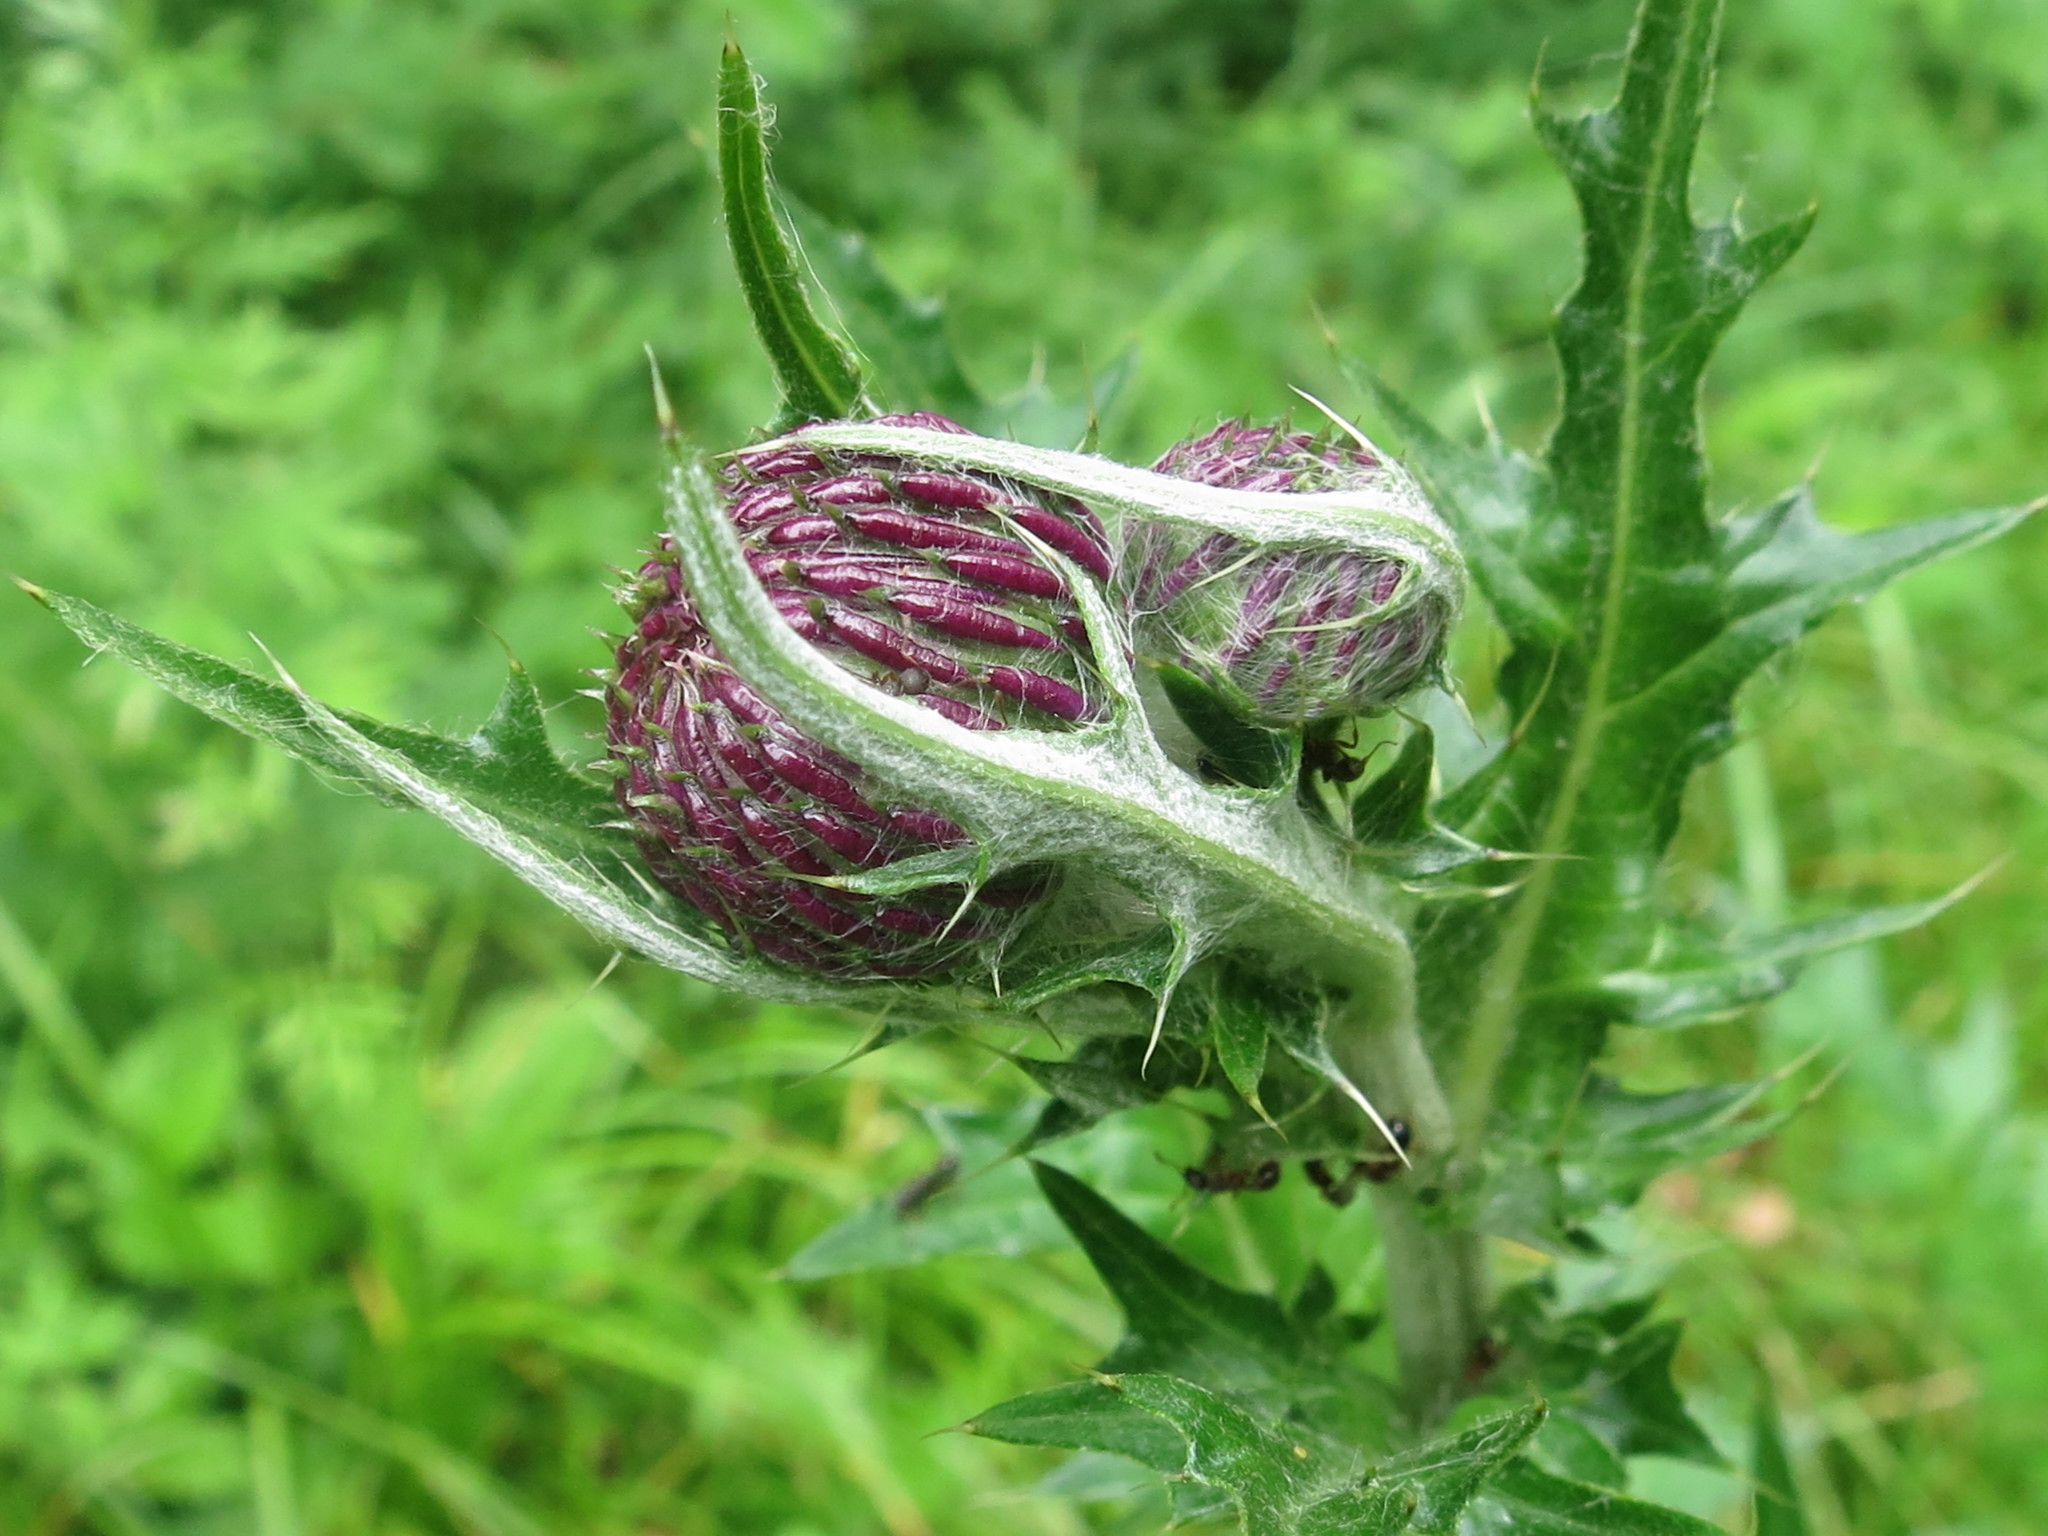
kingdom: Plantae
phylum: Tracheophyta
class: Magnoliopsida
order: Asterales
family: Asteraceae
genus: Cirsium
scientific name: Cirsium maackii
